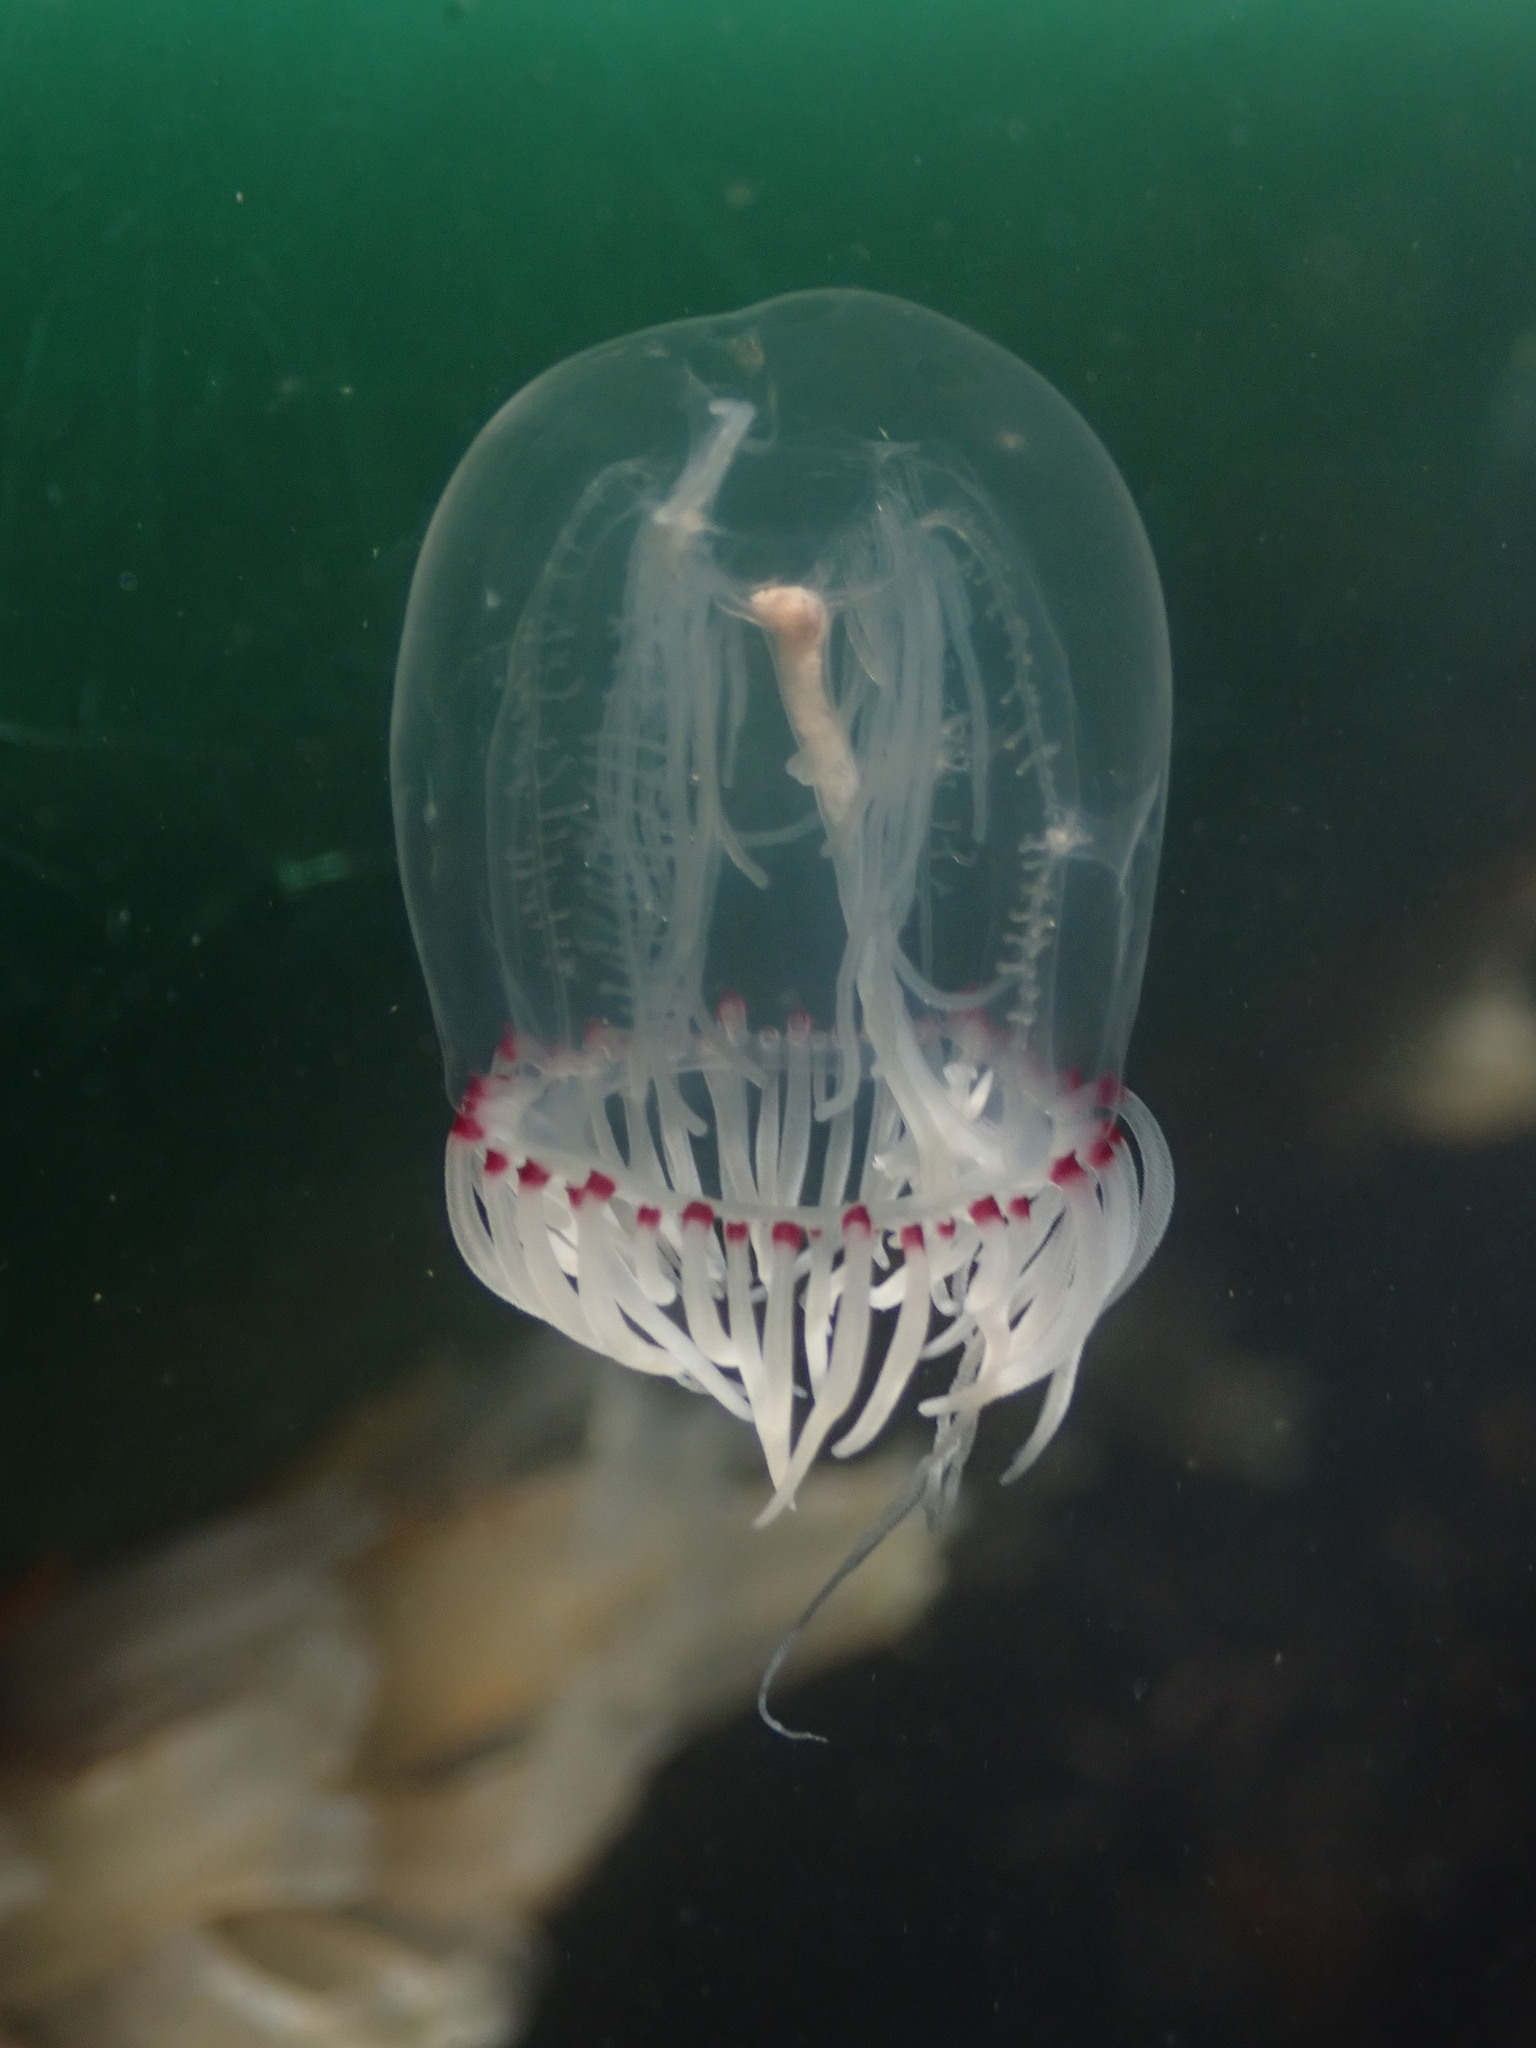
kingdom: Animalia
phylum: Cnidaria
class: Hydrozoa
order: Anthoathecata
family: Corynidae
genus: Polyorchis
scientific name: Polyorchis penicillatus
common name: Penicillate jellyfish
